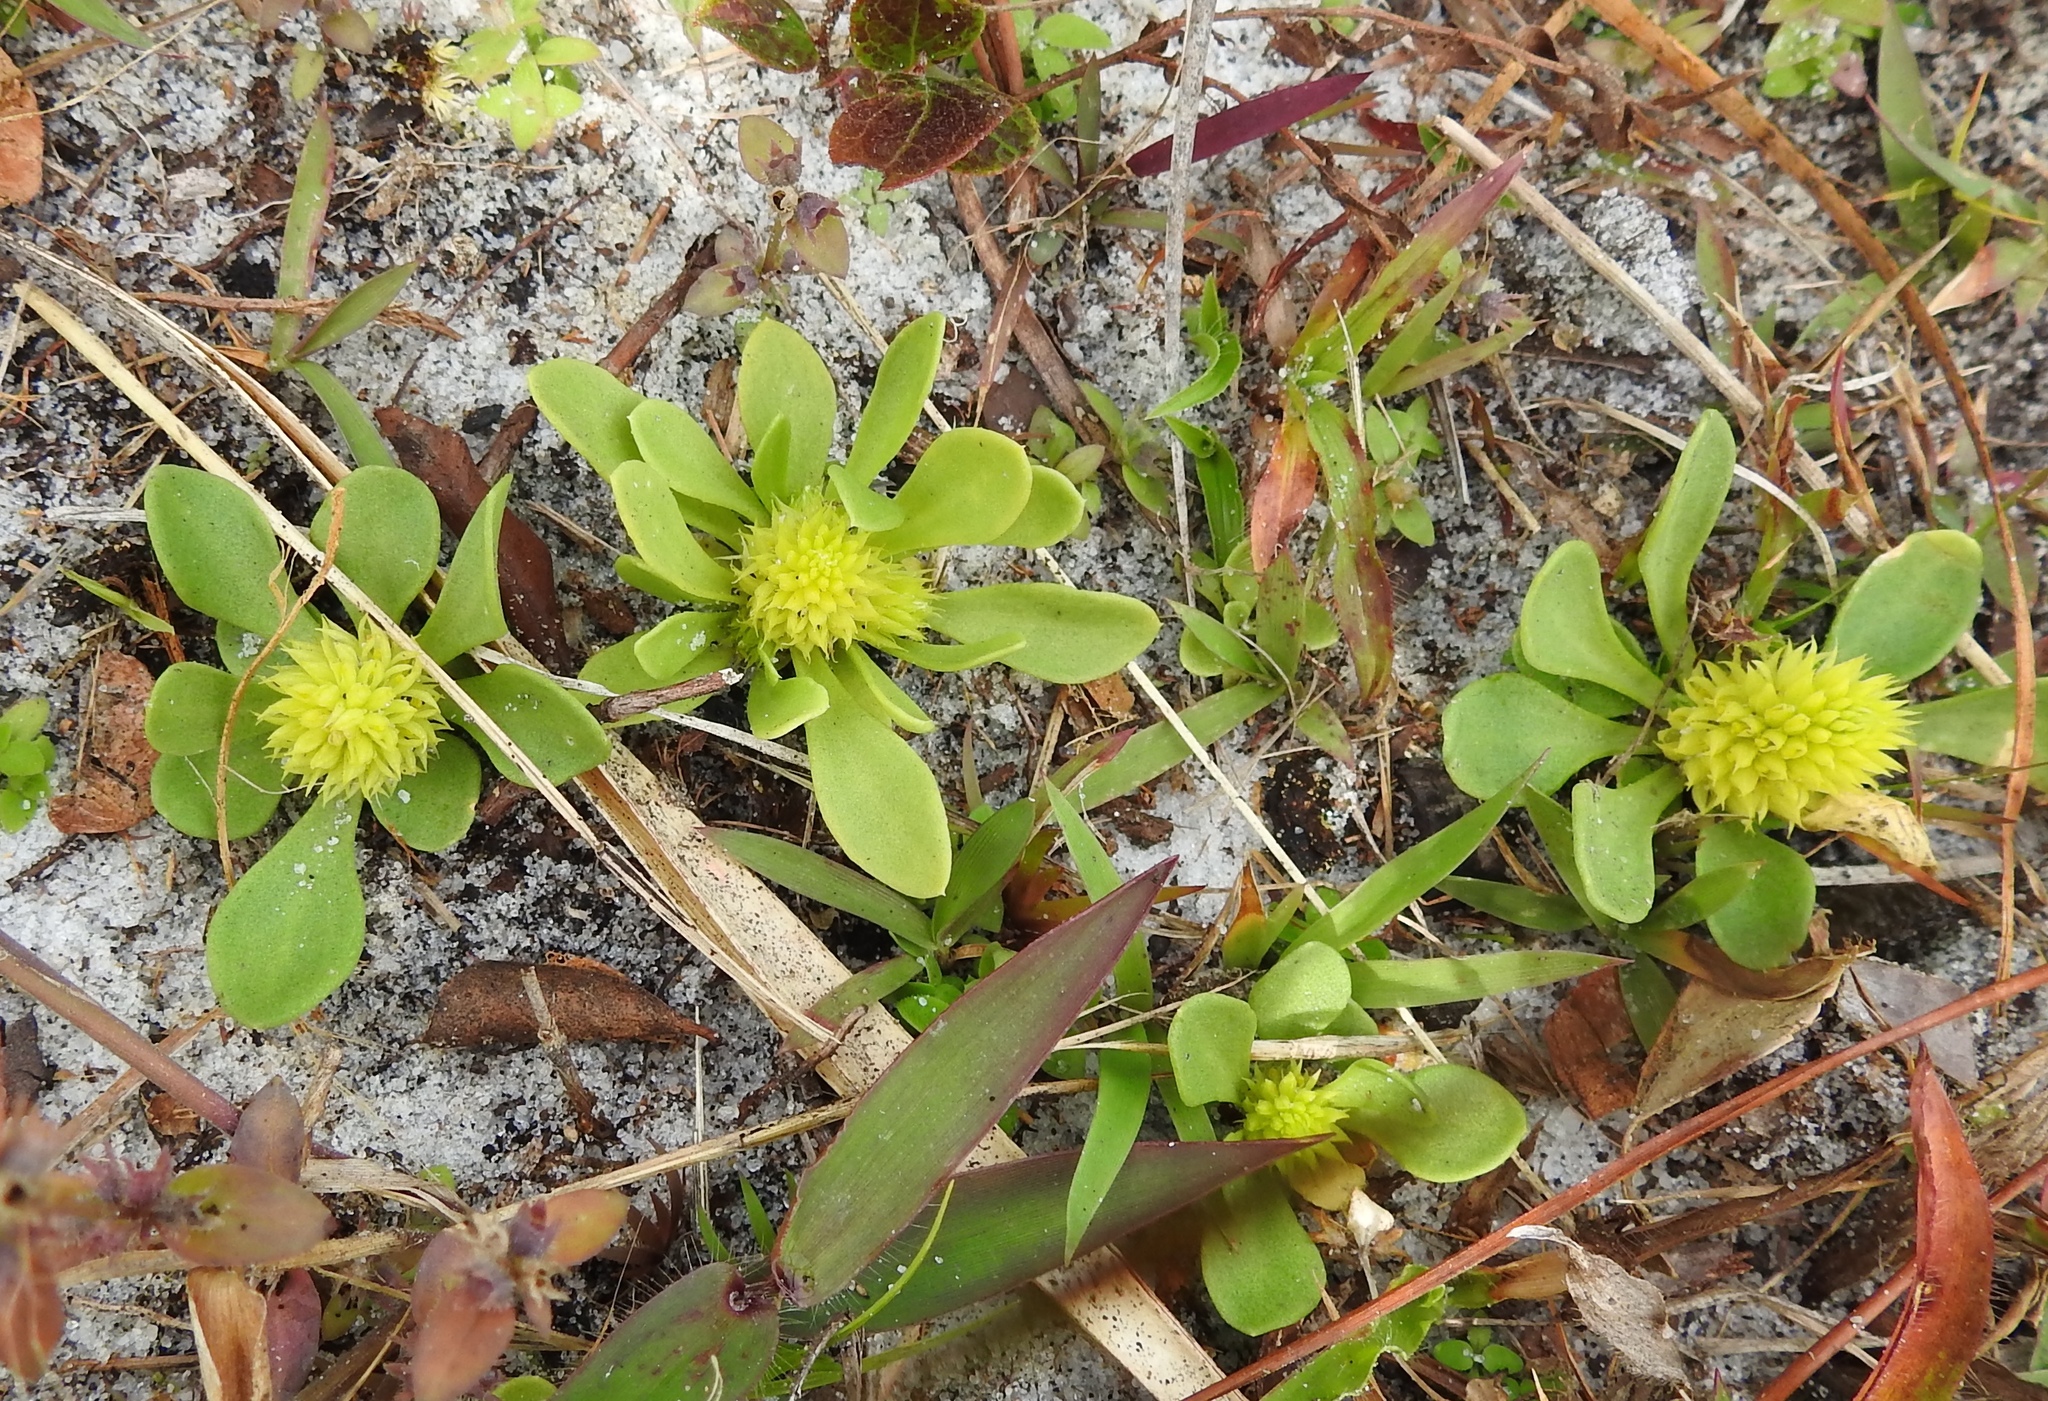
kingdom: Plantae
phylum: Tracheophyta
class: Magnoliopsida
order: Fabales
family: Polygalaceae
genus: Polygala
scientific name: Polygala nana
